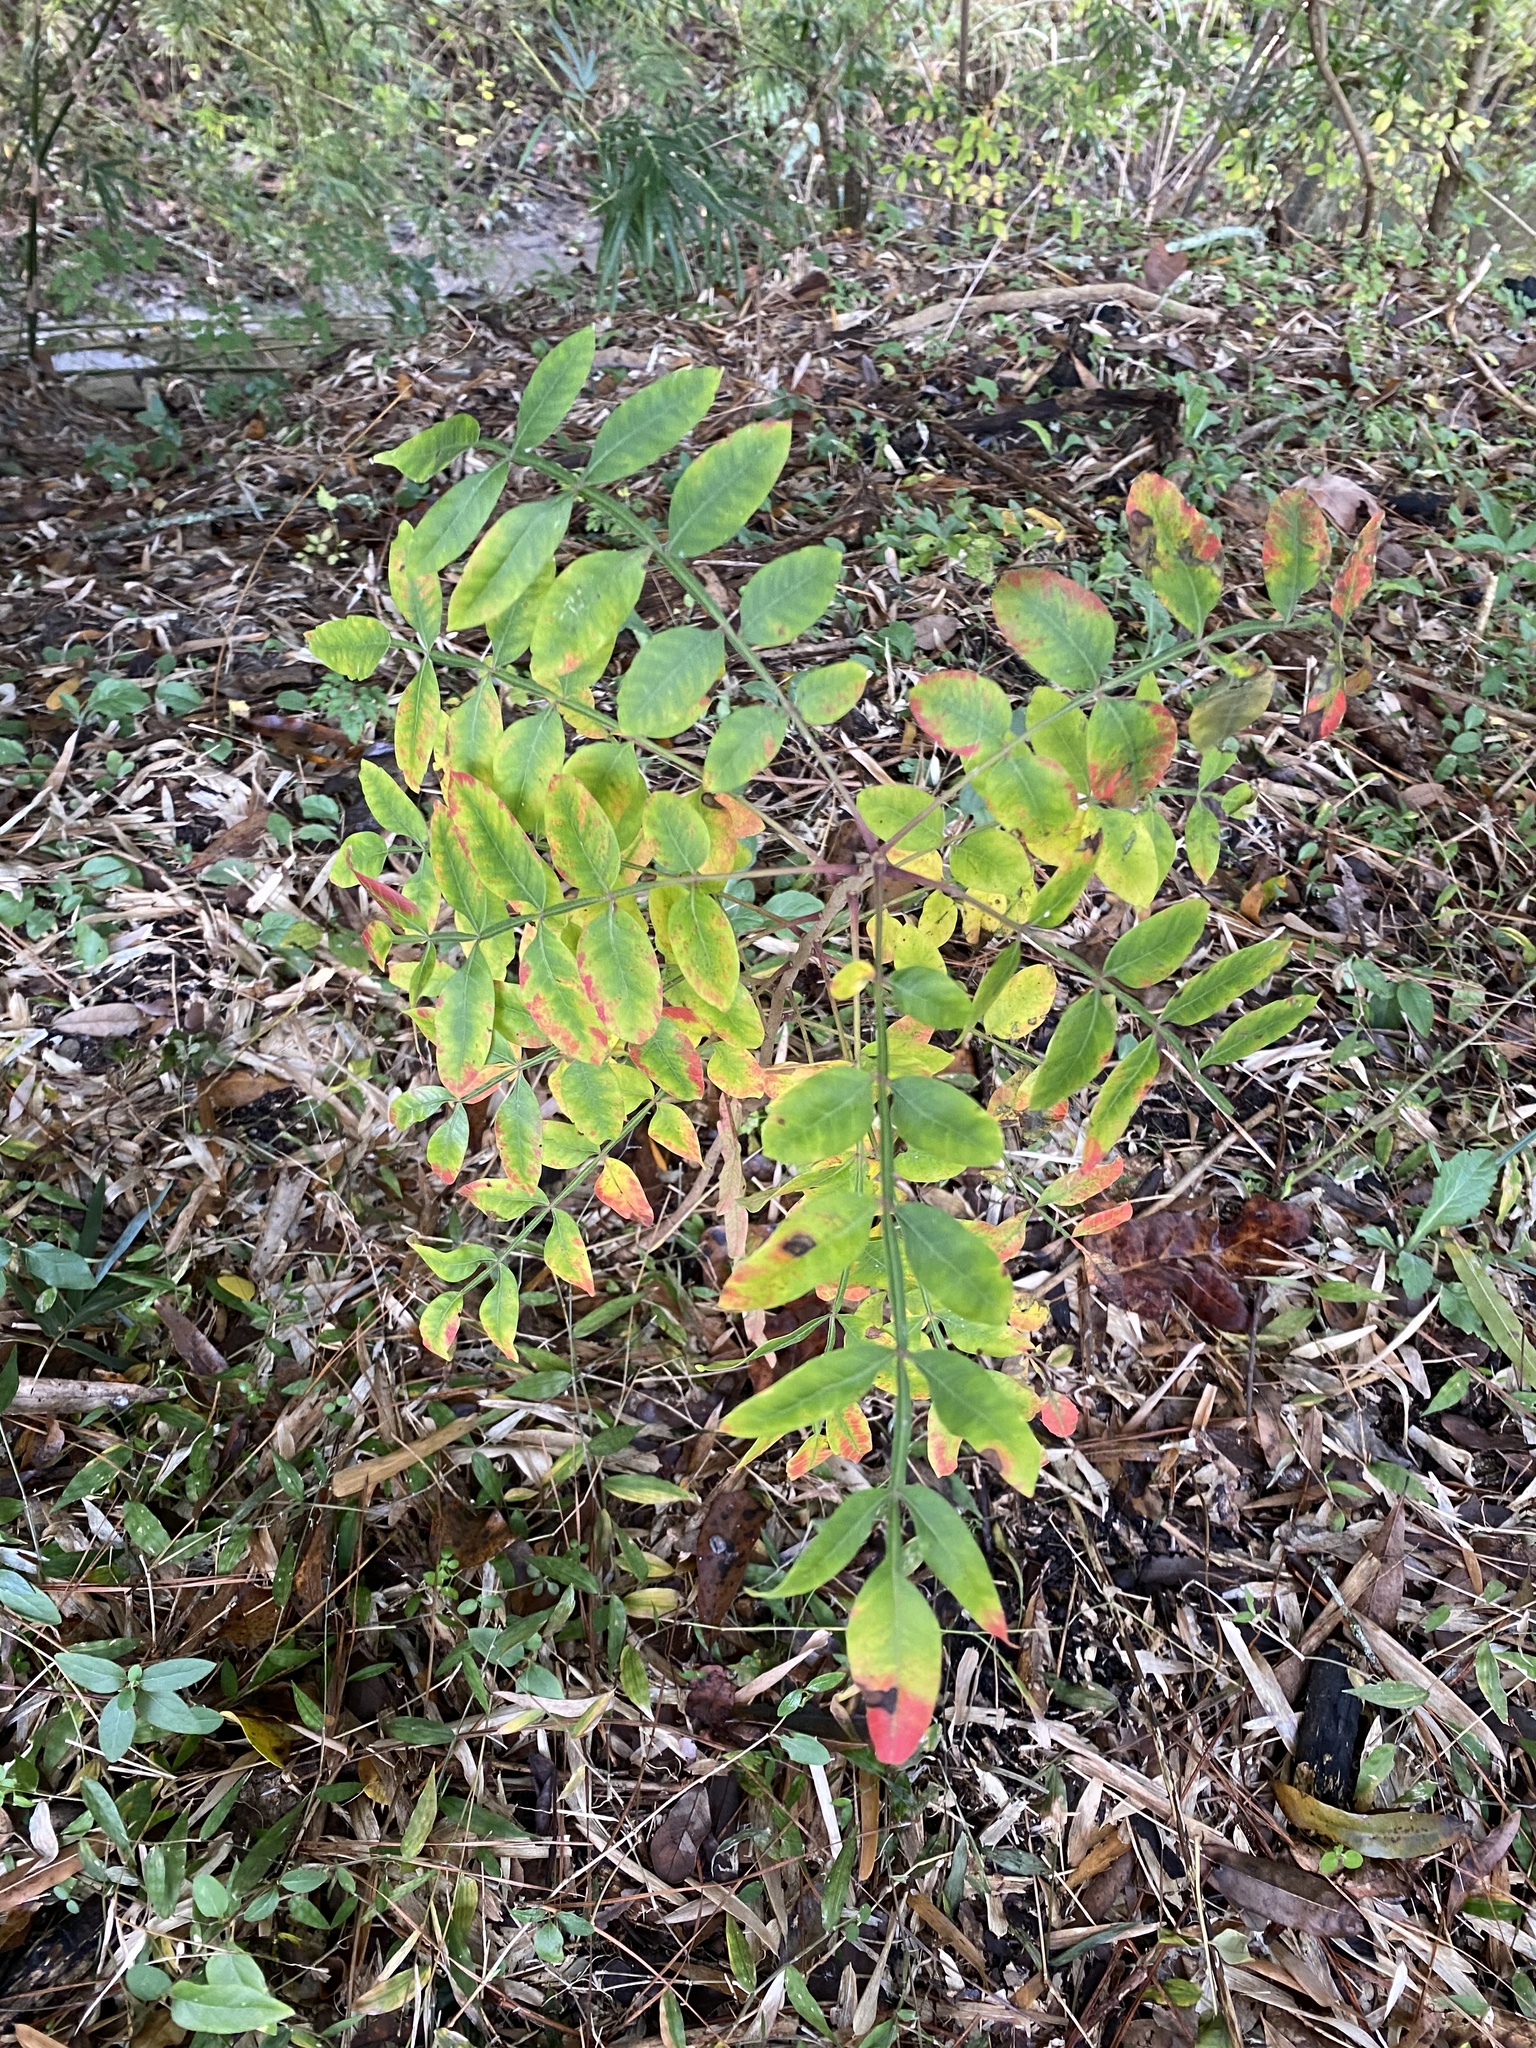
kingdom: Plantae
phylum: Tracheophyta
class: Magnoliopsida
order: Sapindales
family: Anacardiaceae
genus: Rhus
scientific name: Rhus copallina
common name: Shining sumac
